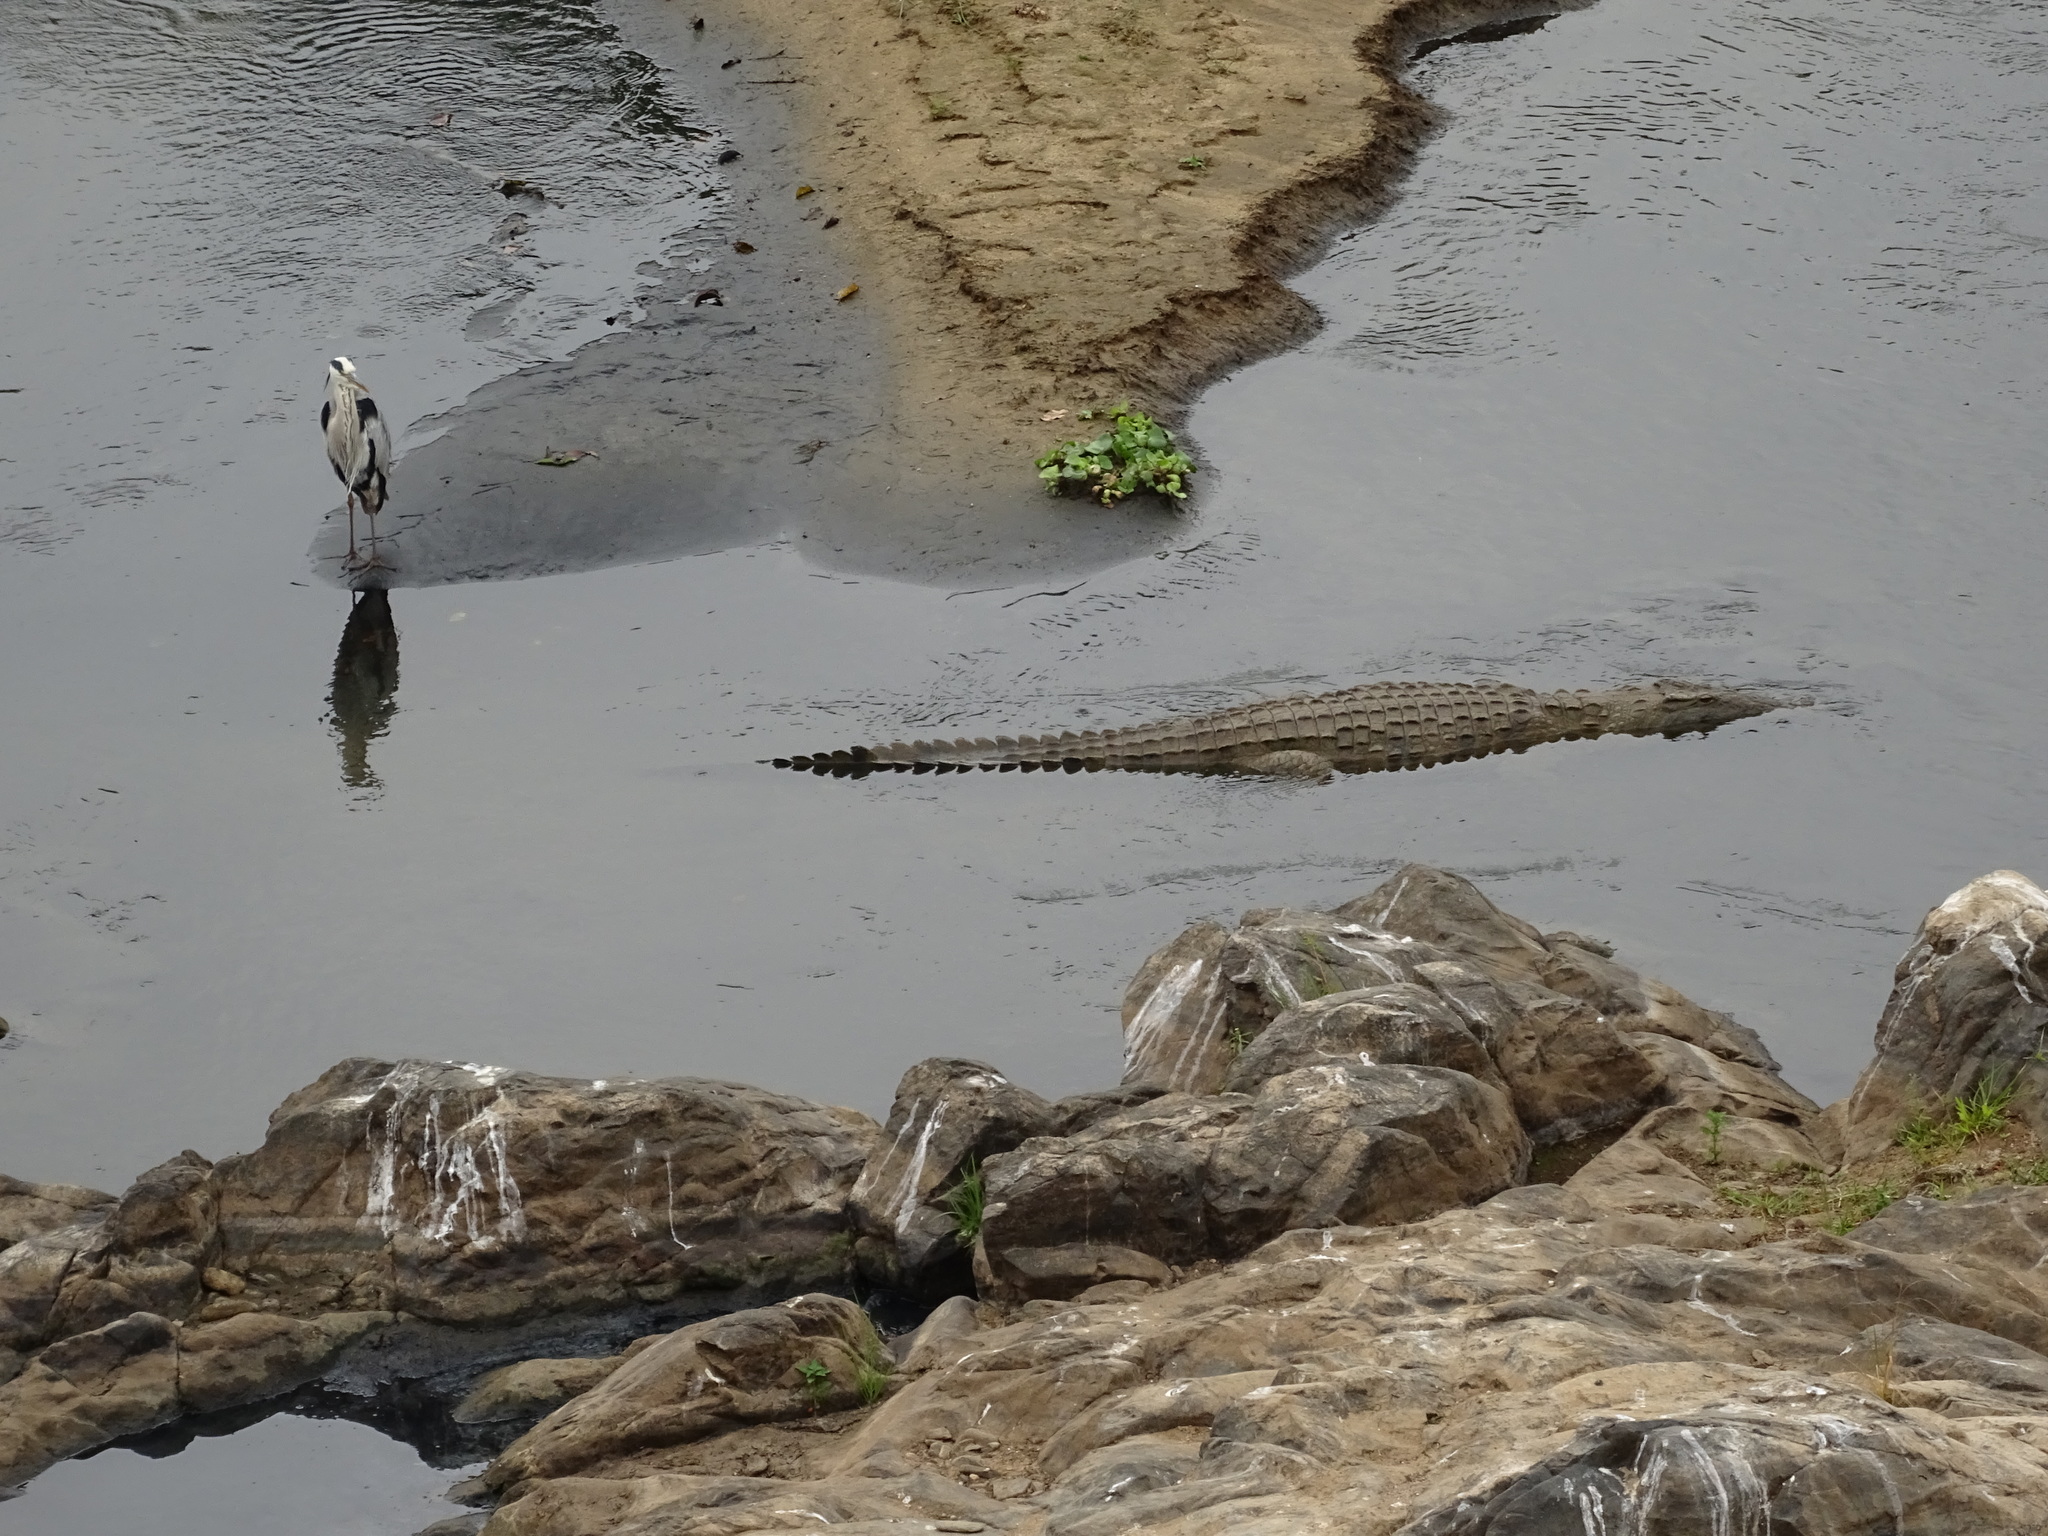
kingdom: Animalia
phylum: Chordata
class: Aves
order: Pelecaniformes
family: Ardeidae
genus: Ardea
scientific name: Ardea cinerea
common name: Grey heron
